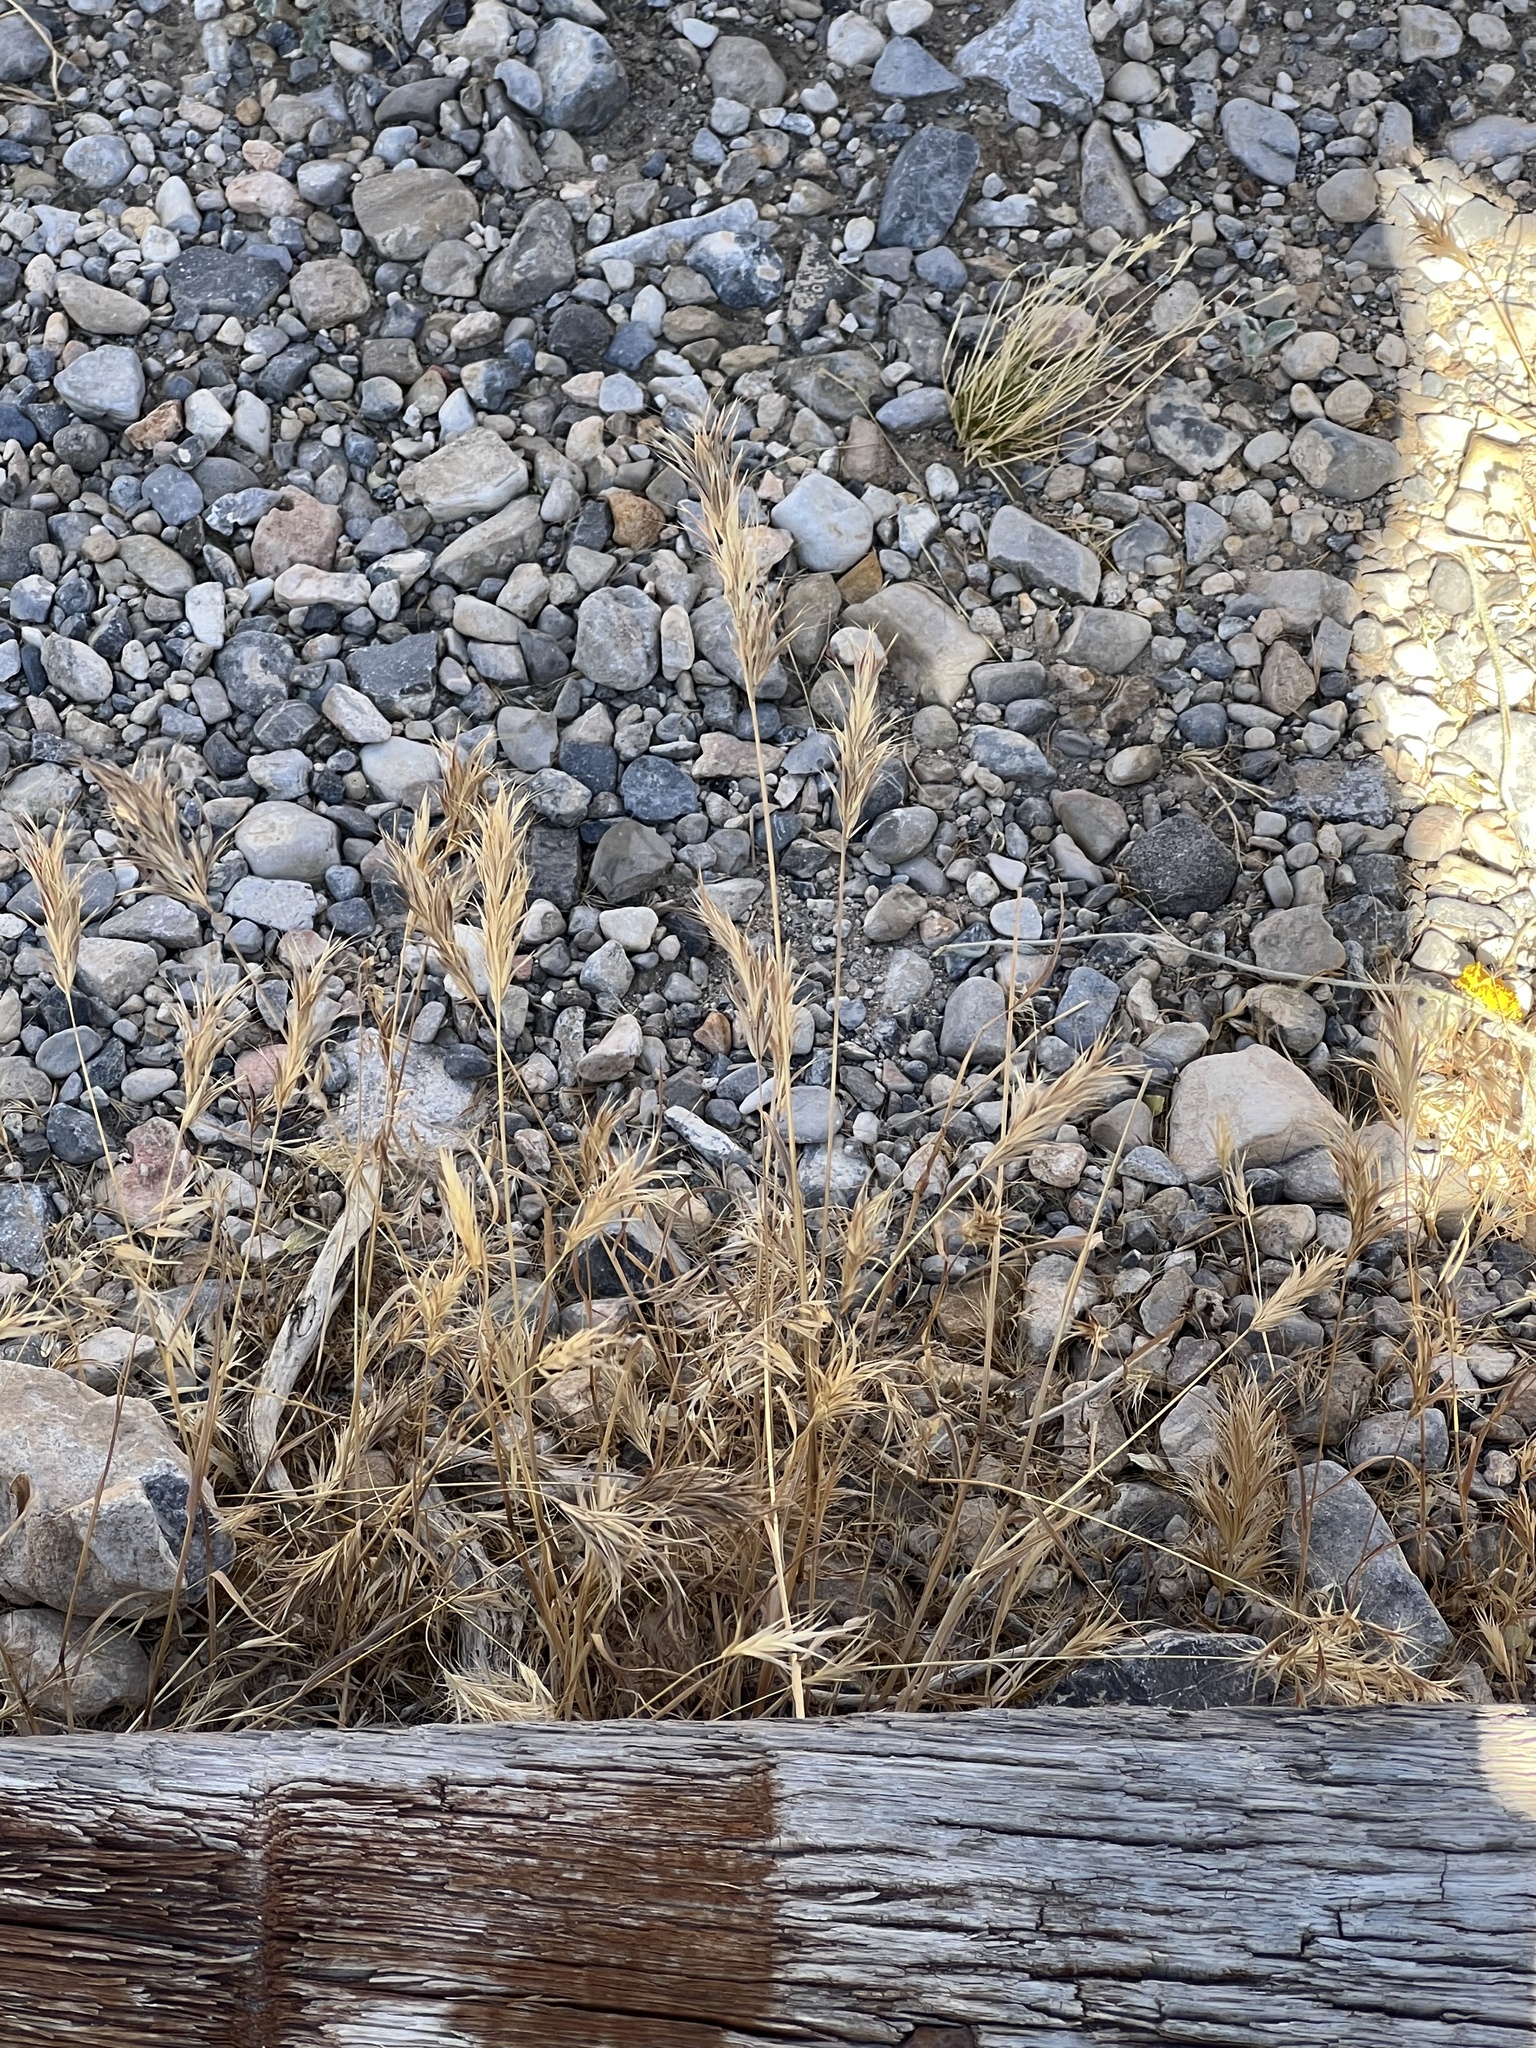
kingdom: Plantae
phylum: Tracheophyta
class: Liliopsida
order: Poales
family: Poaceae
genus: Bromus
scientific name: Bromus rubens
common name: Red brome
